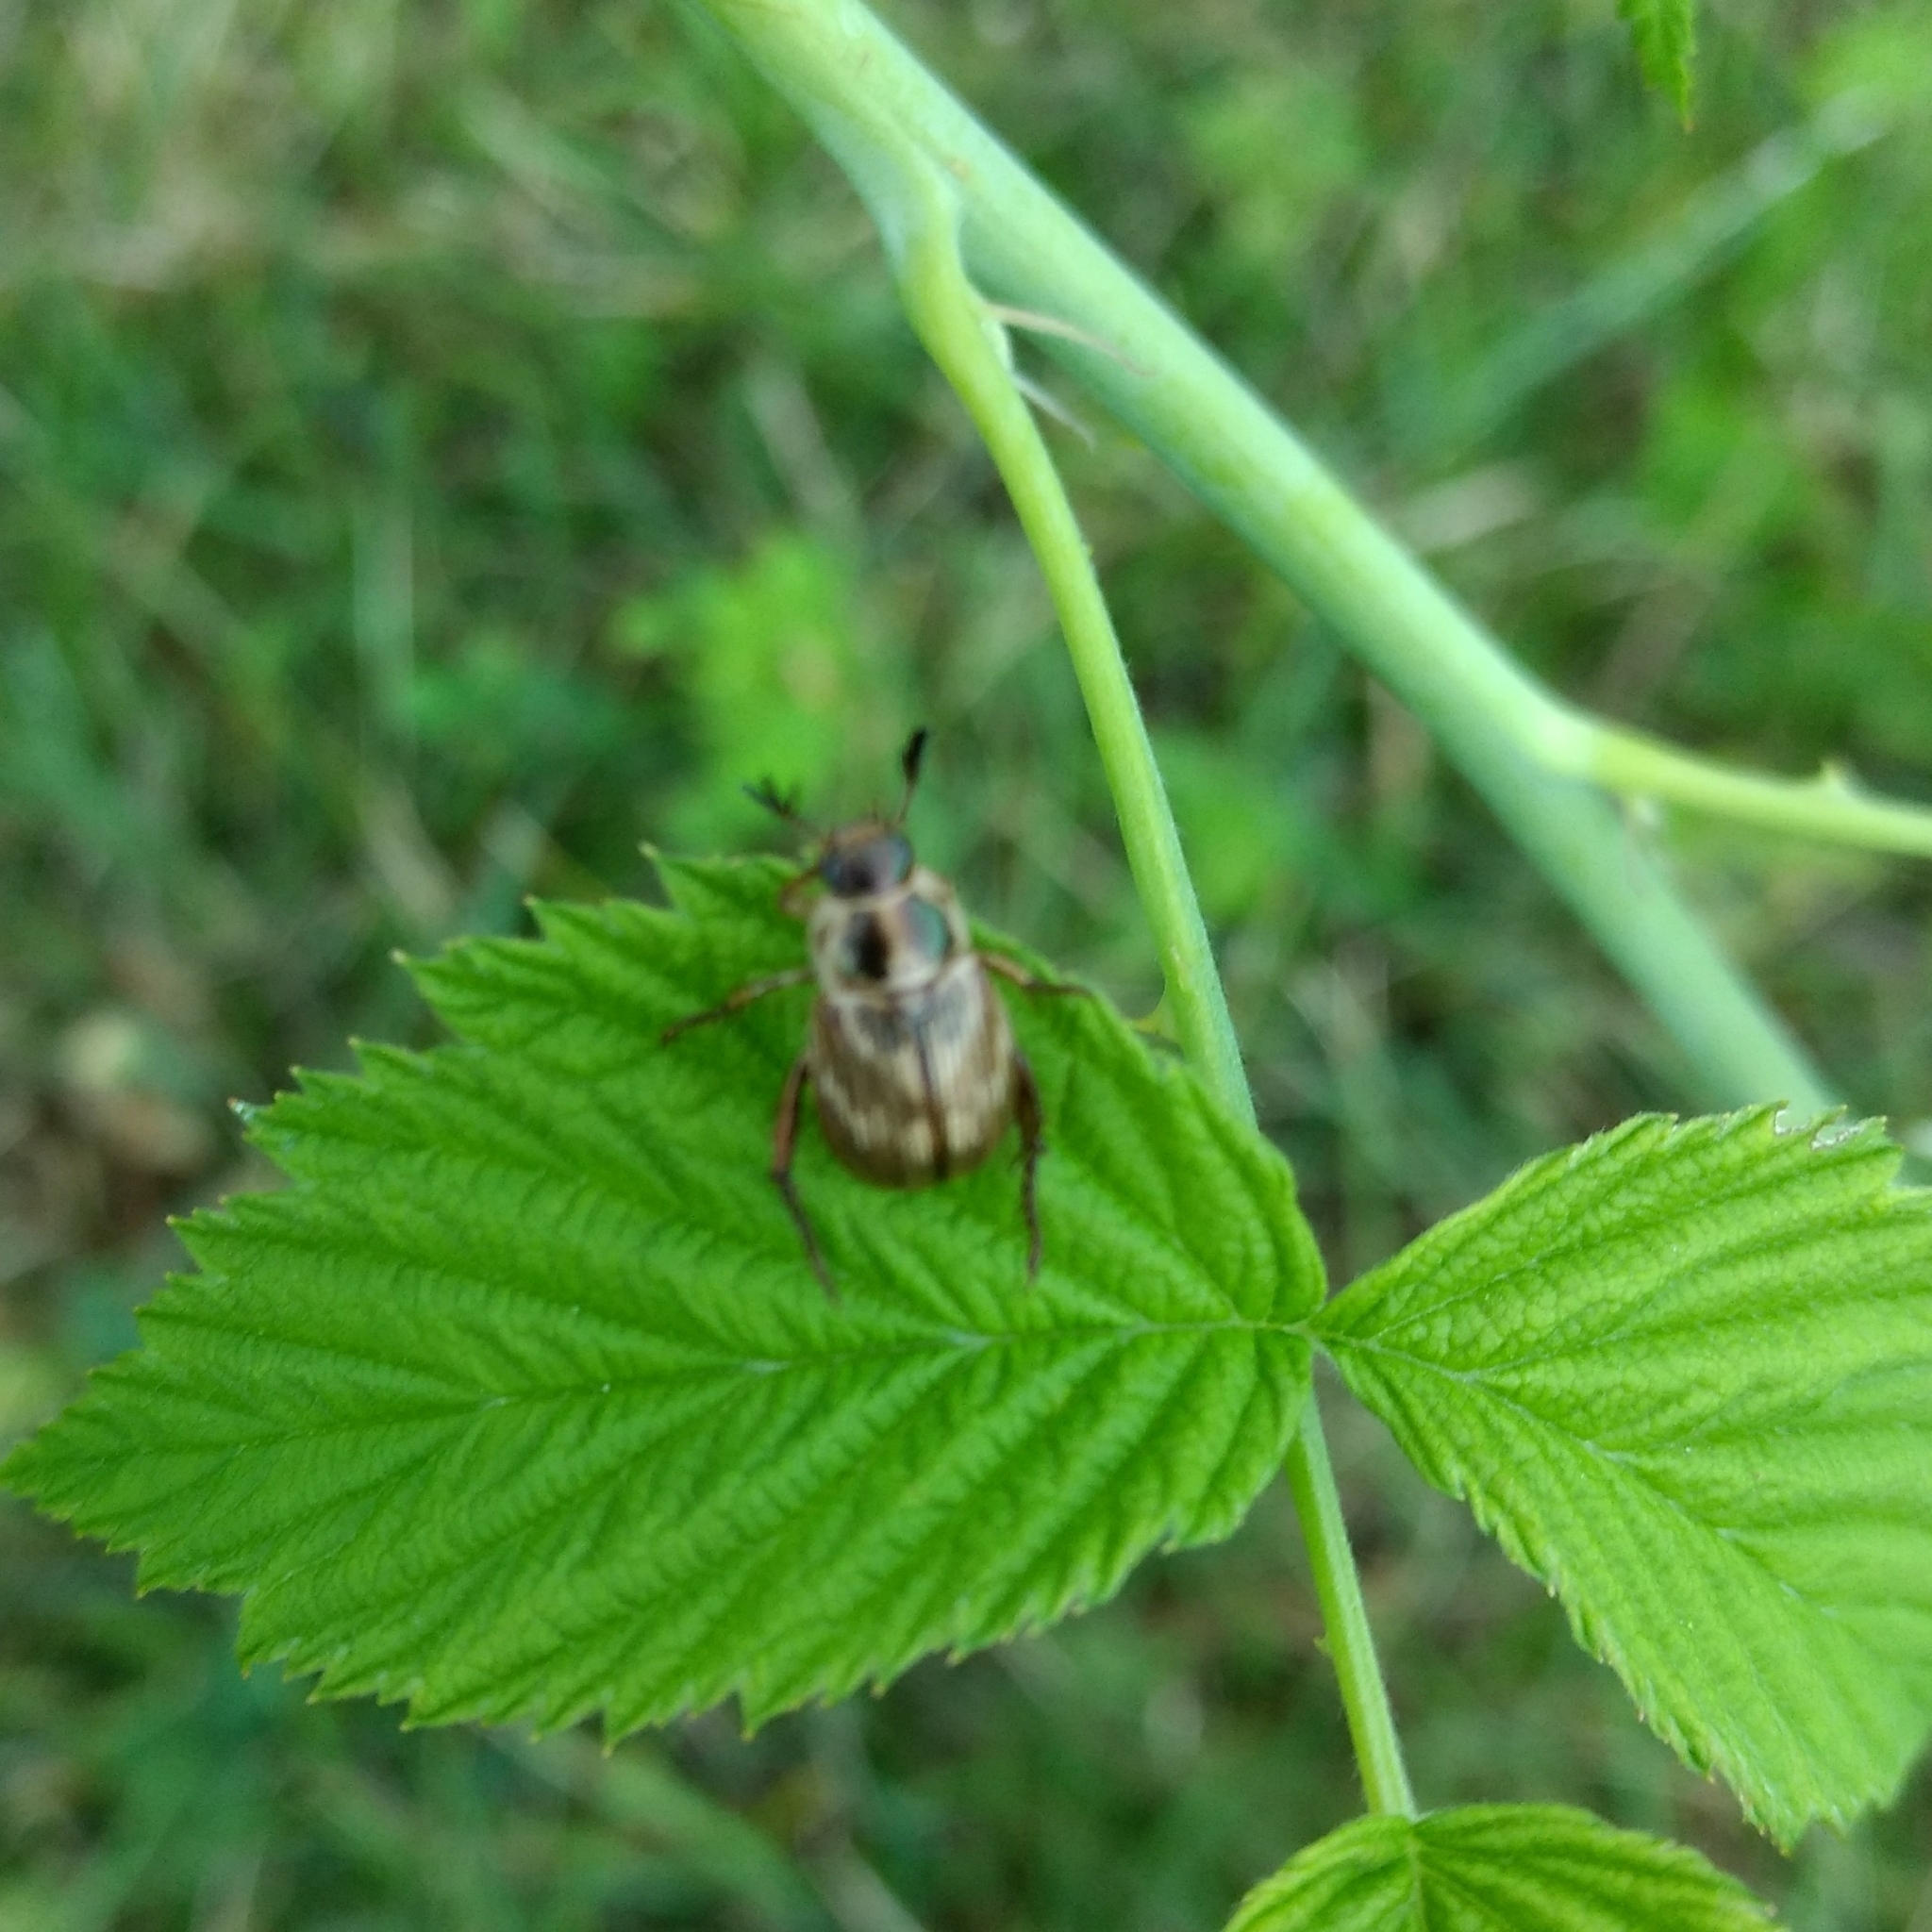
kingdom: Animalia
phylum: Arthropoda
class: Insecta
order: Coleoptera
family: Scarabaeidae
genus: Exomala
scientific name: Exomala orientalis
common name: Oriental beetle
